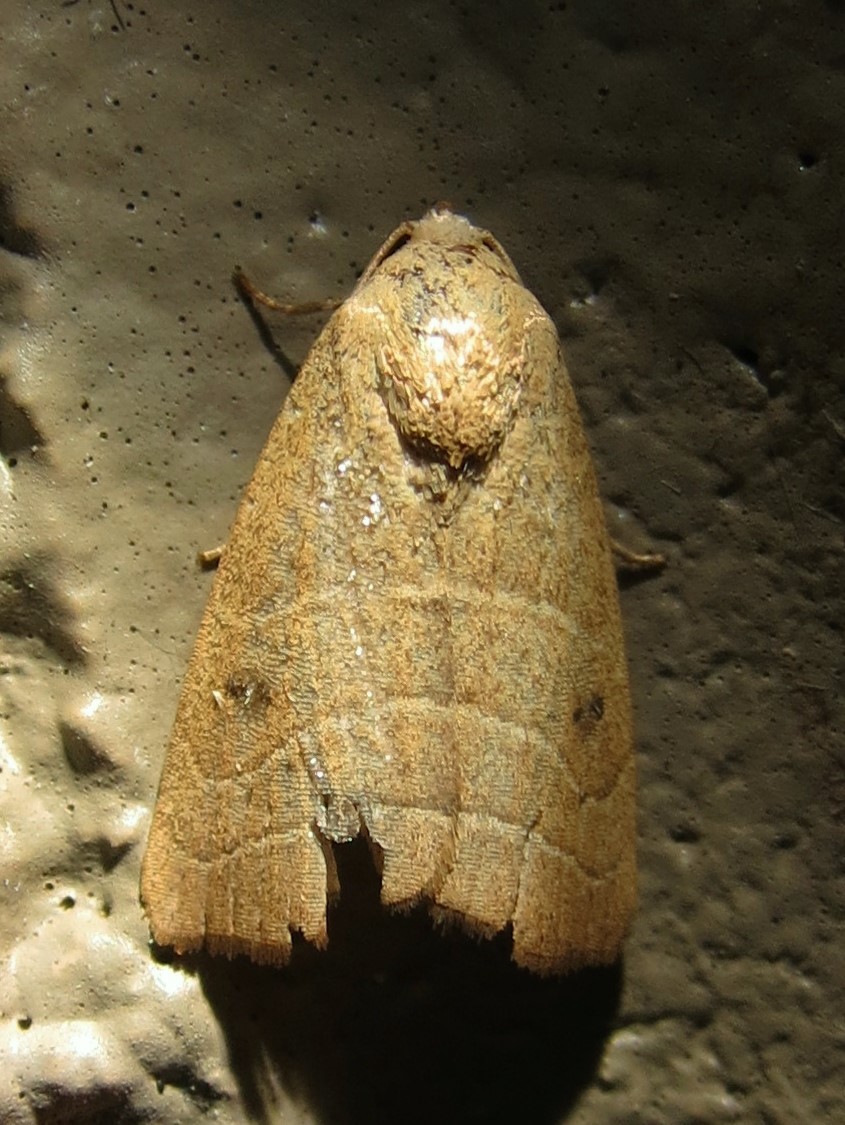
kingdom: Animalia
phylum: Arthropoda
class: Insecta
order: Lepidoptera
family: Noctuidae
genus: Bagisara
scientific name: Bagisara repanda
